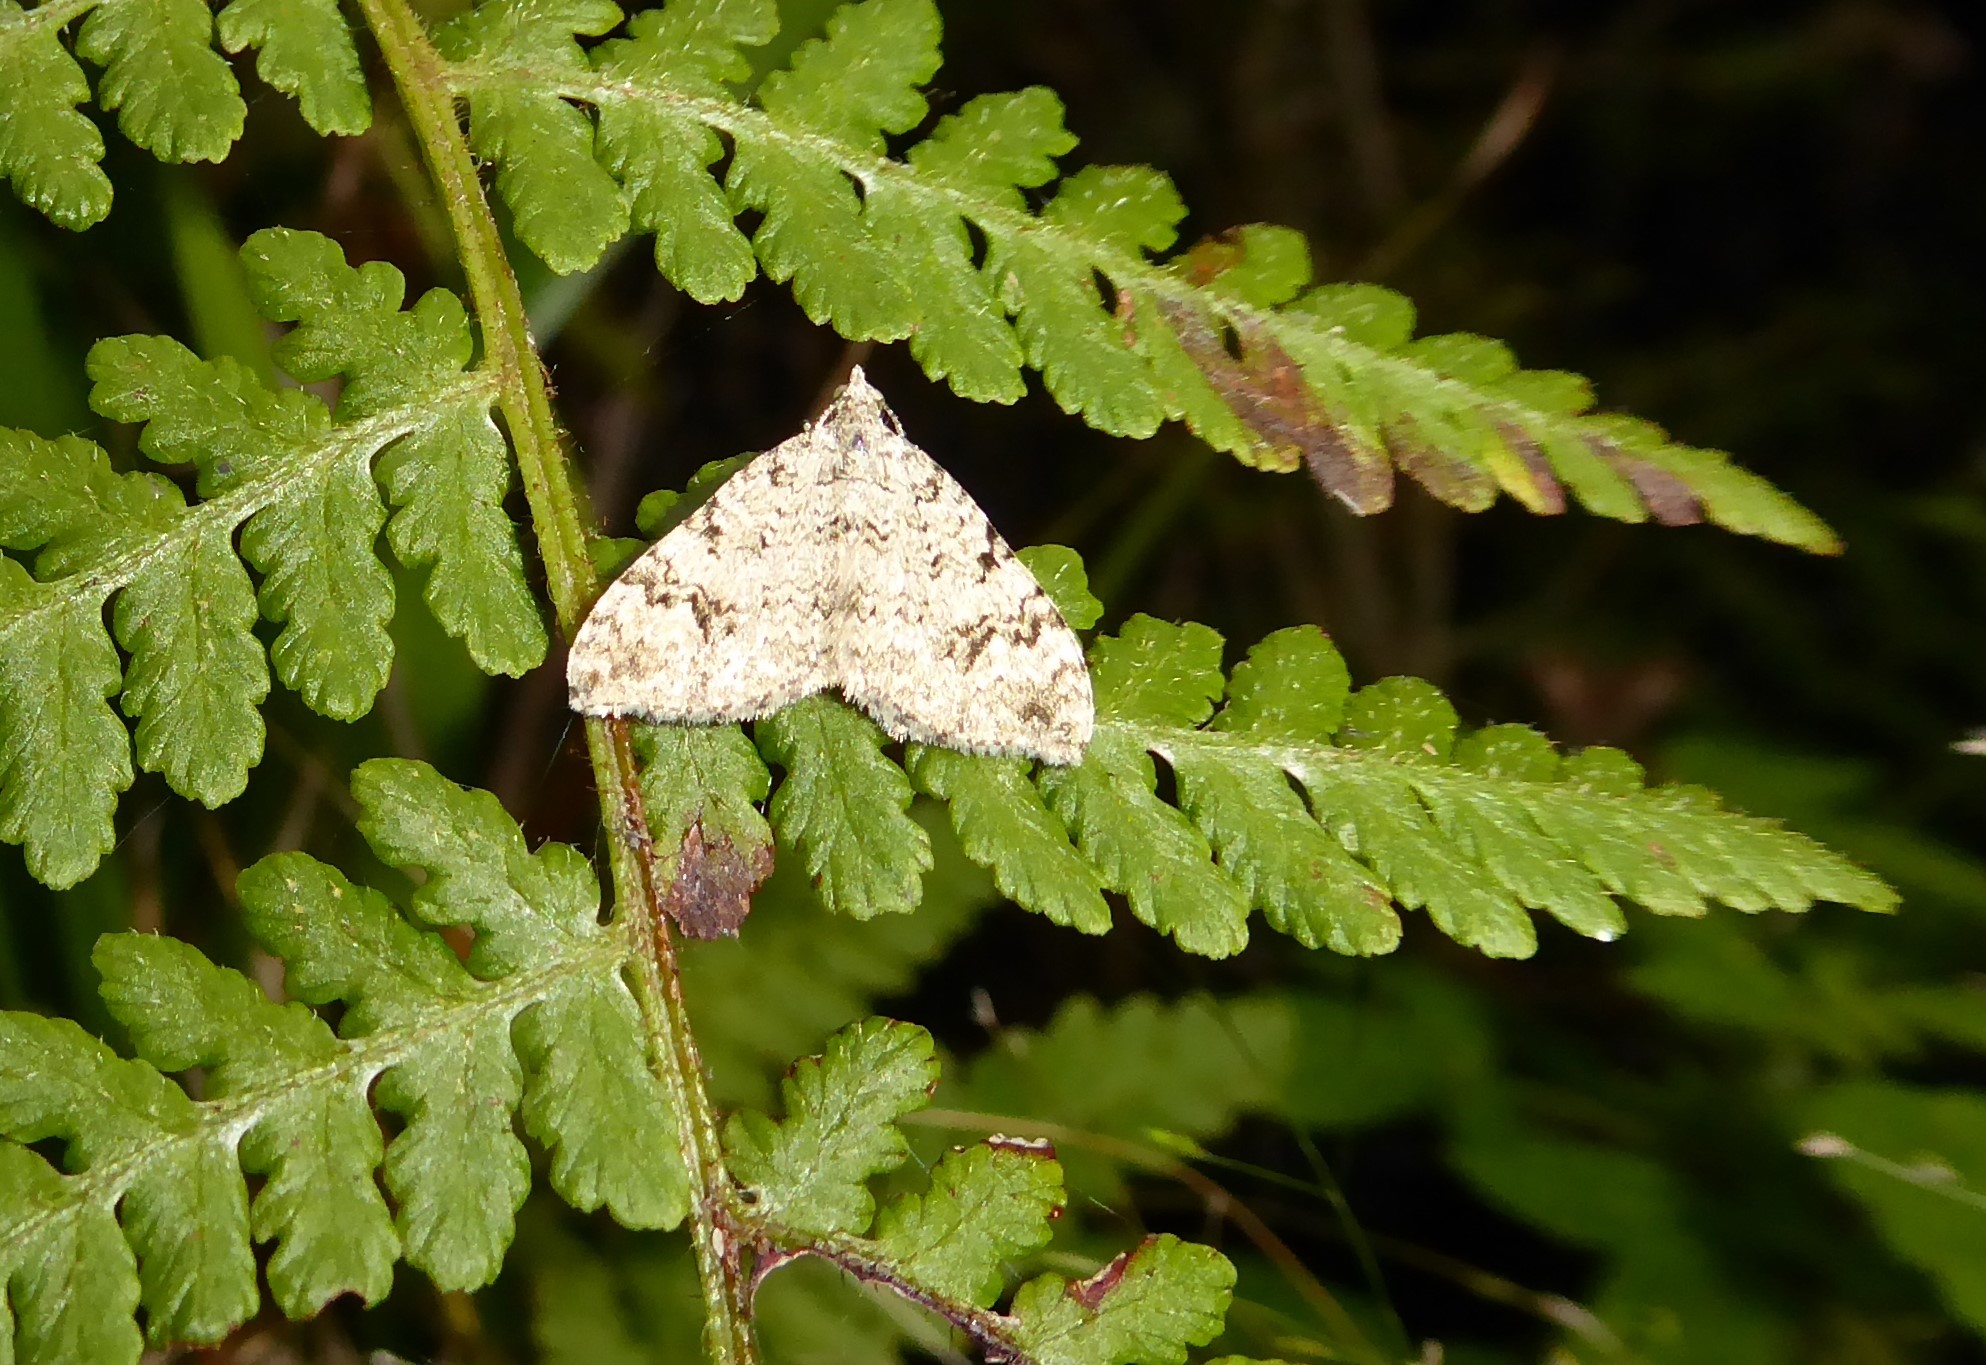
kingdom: Animalia
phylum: Arthropoda
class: Insecta
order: Lepidoptera
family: Geometridae
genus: Helastia
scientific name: Helastia cinerearia
